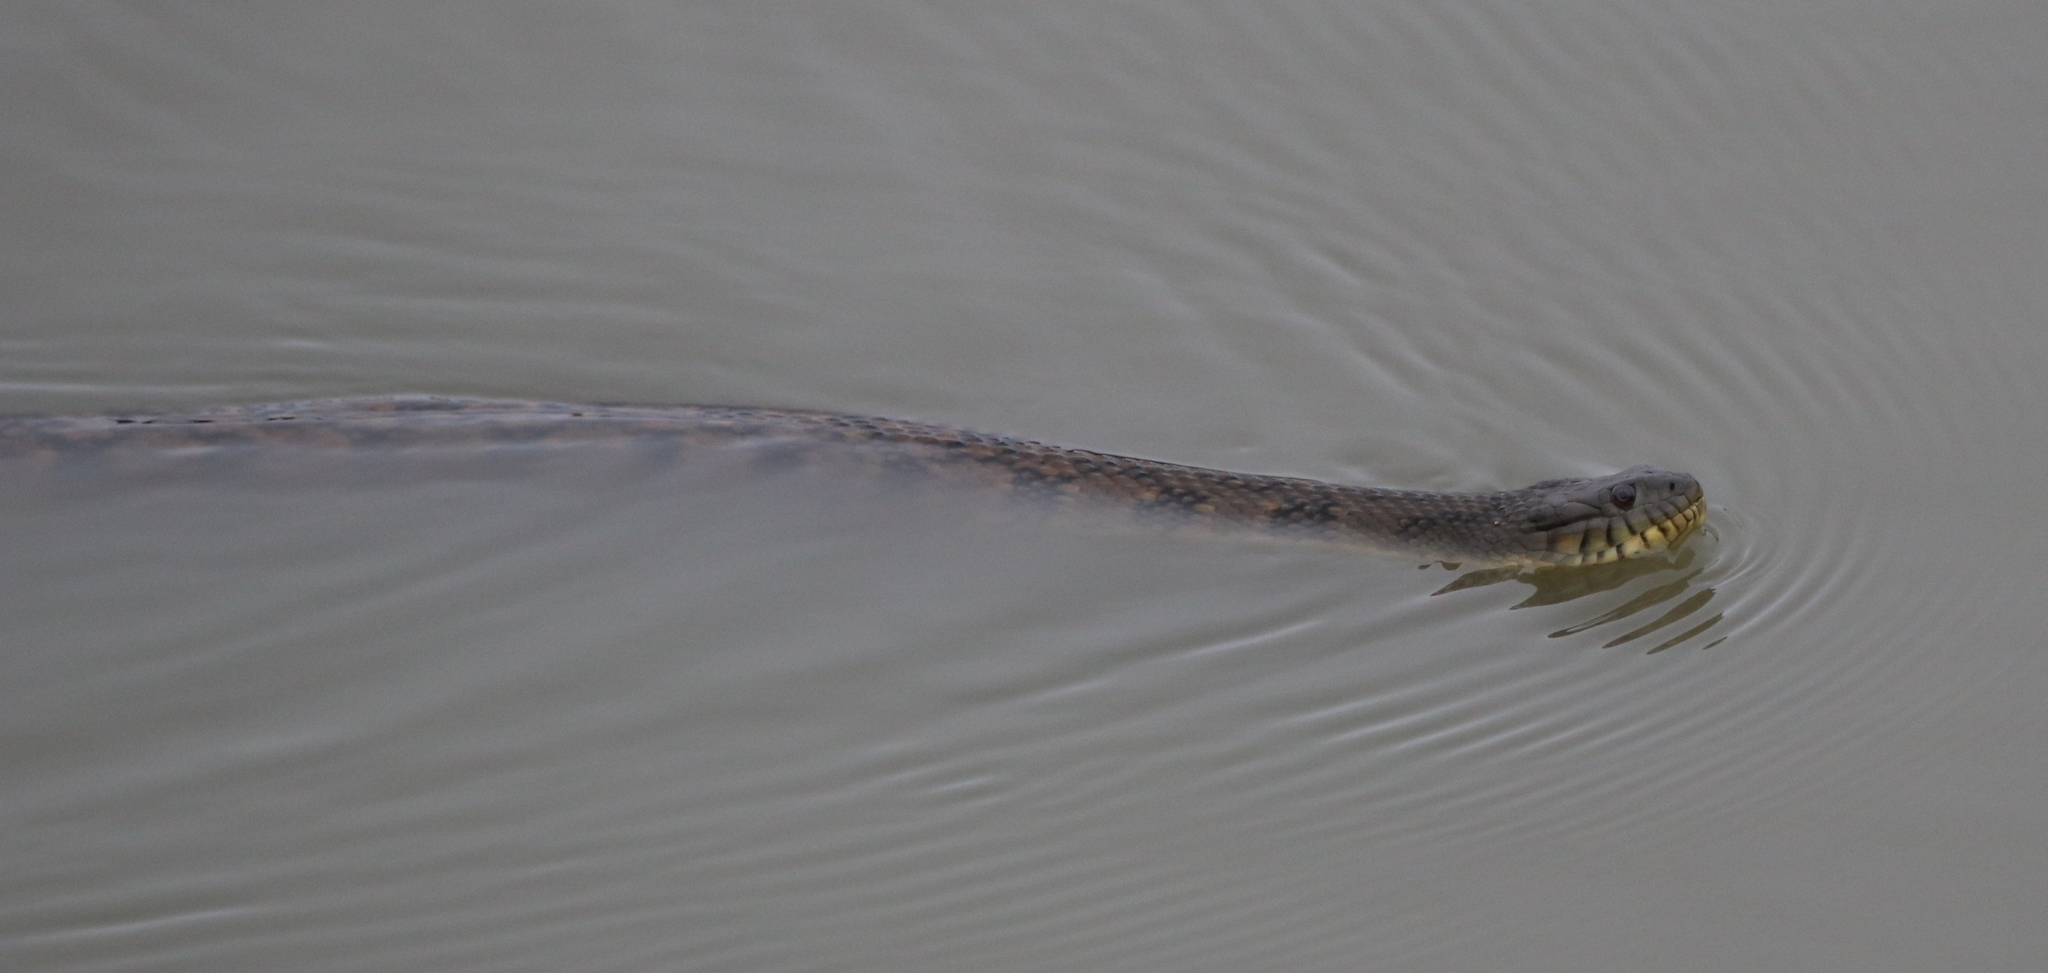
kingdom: Animalia
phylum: Chordata
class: Squamata
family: Colubridae
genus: Nerodia
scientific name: Nerodia rhombifer
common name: Diamondback water snake
